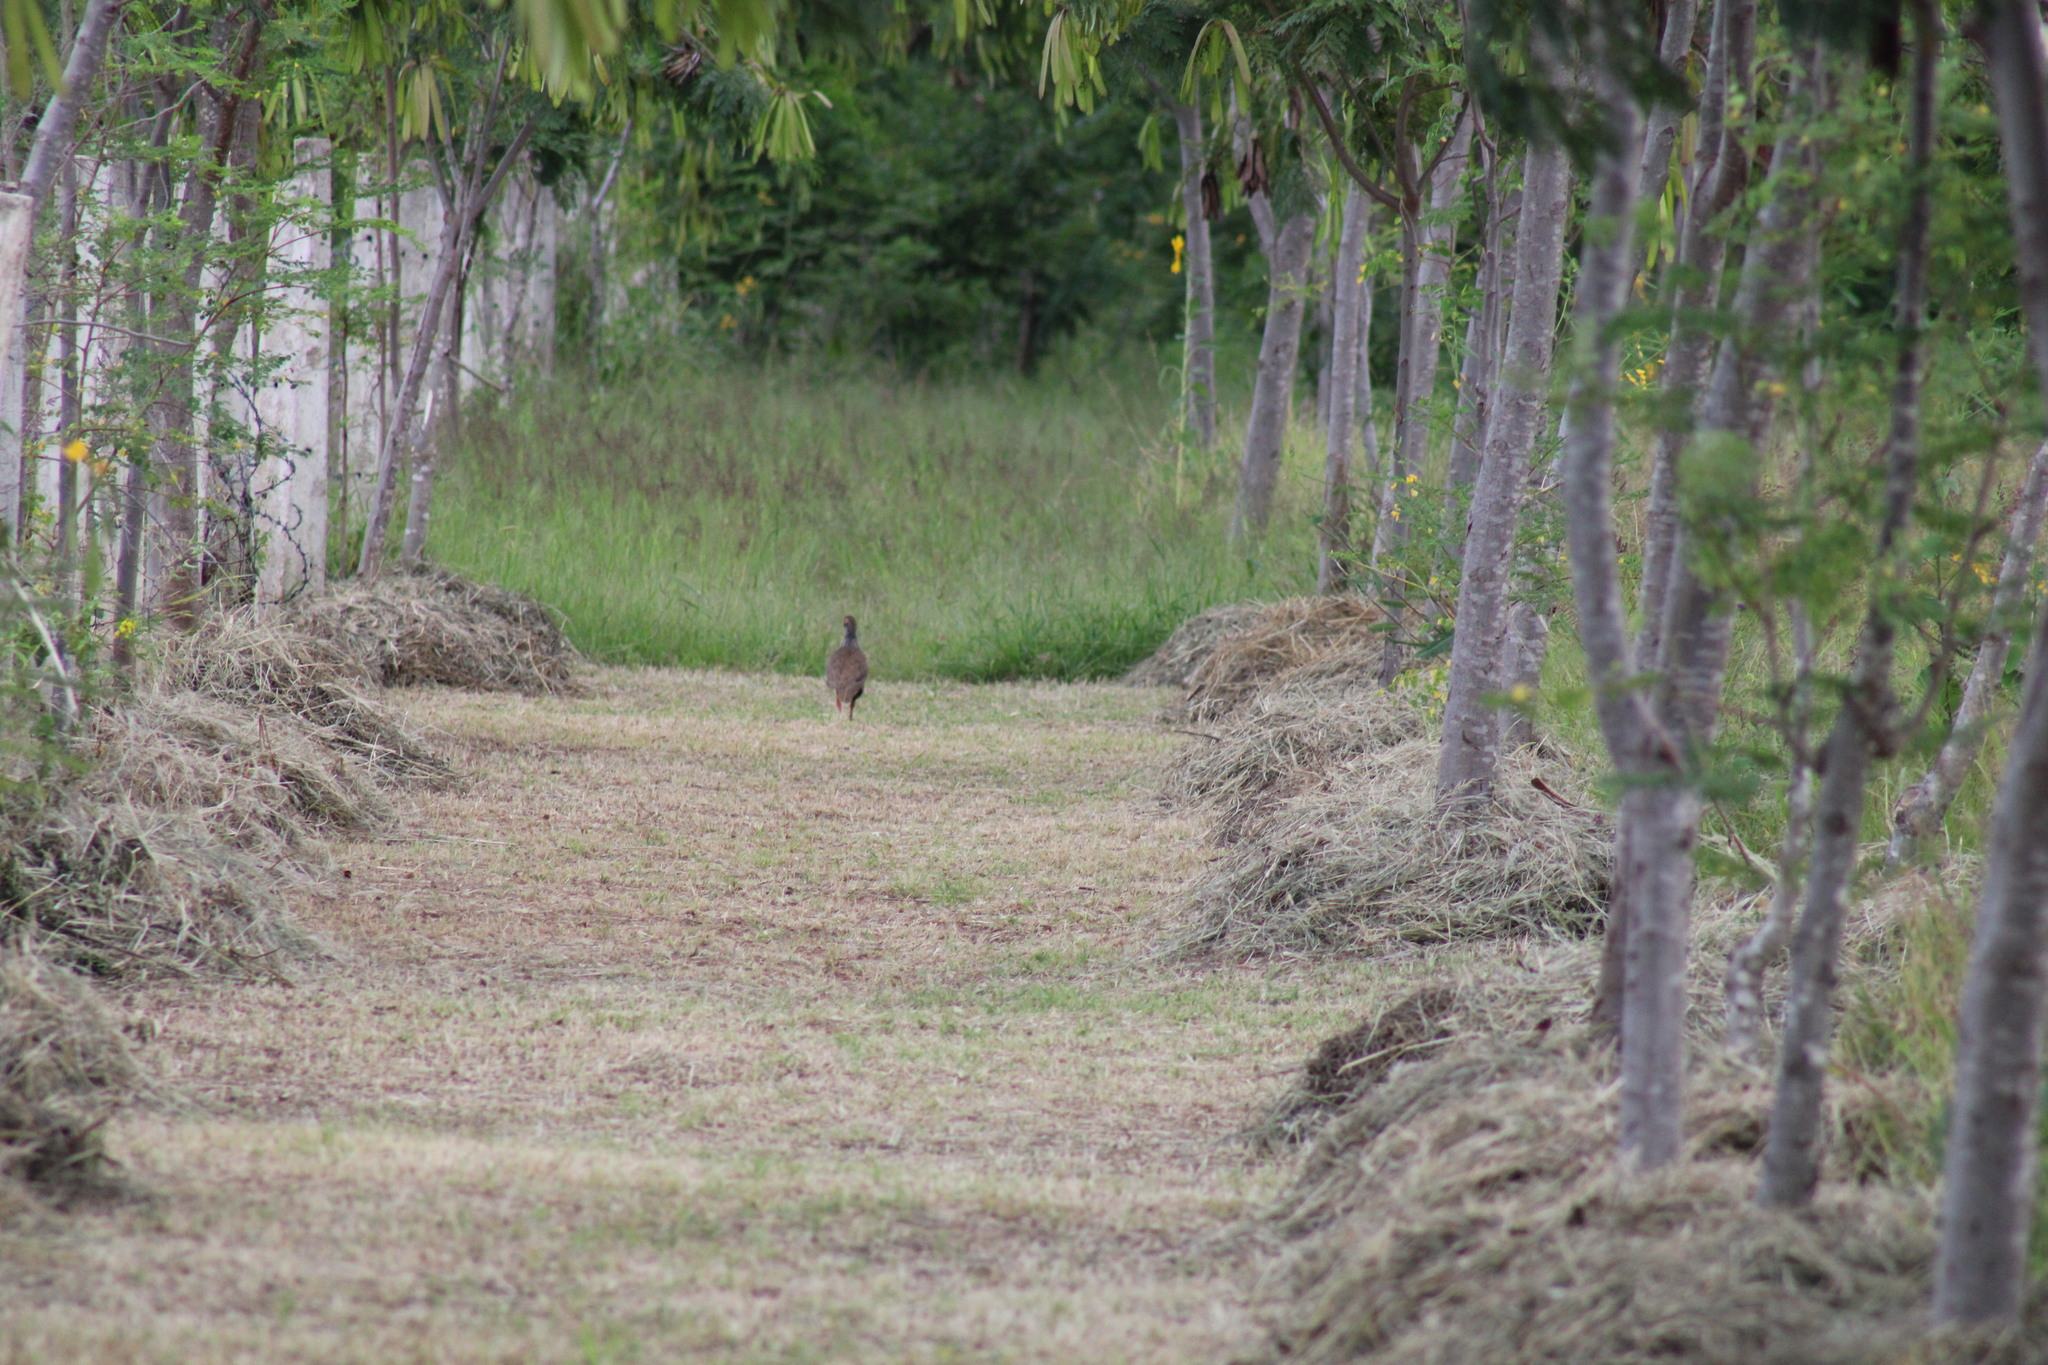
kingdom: Animalia
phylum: Chordata
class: Aves
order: Galliformes
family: Phasianidae
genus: Pternistis
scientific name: Pternistis afer
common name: Red-necked spurfowl
